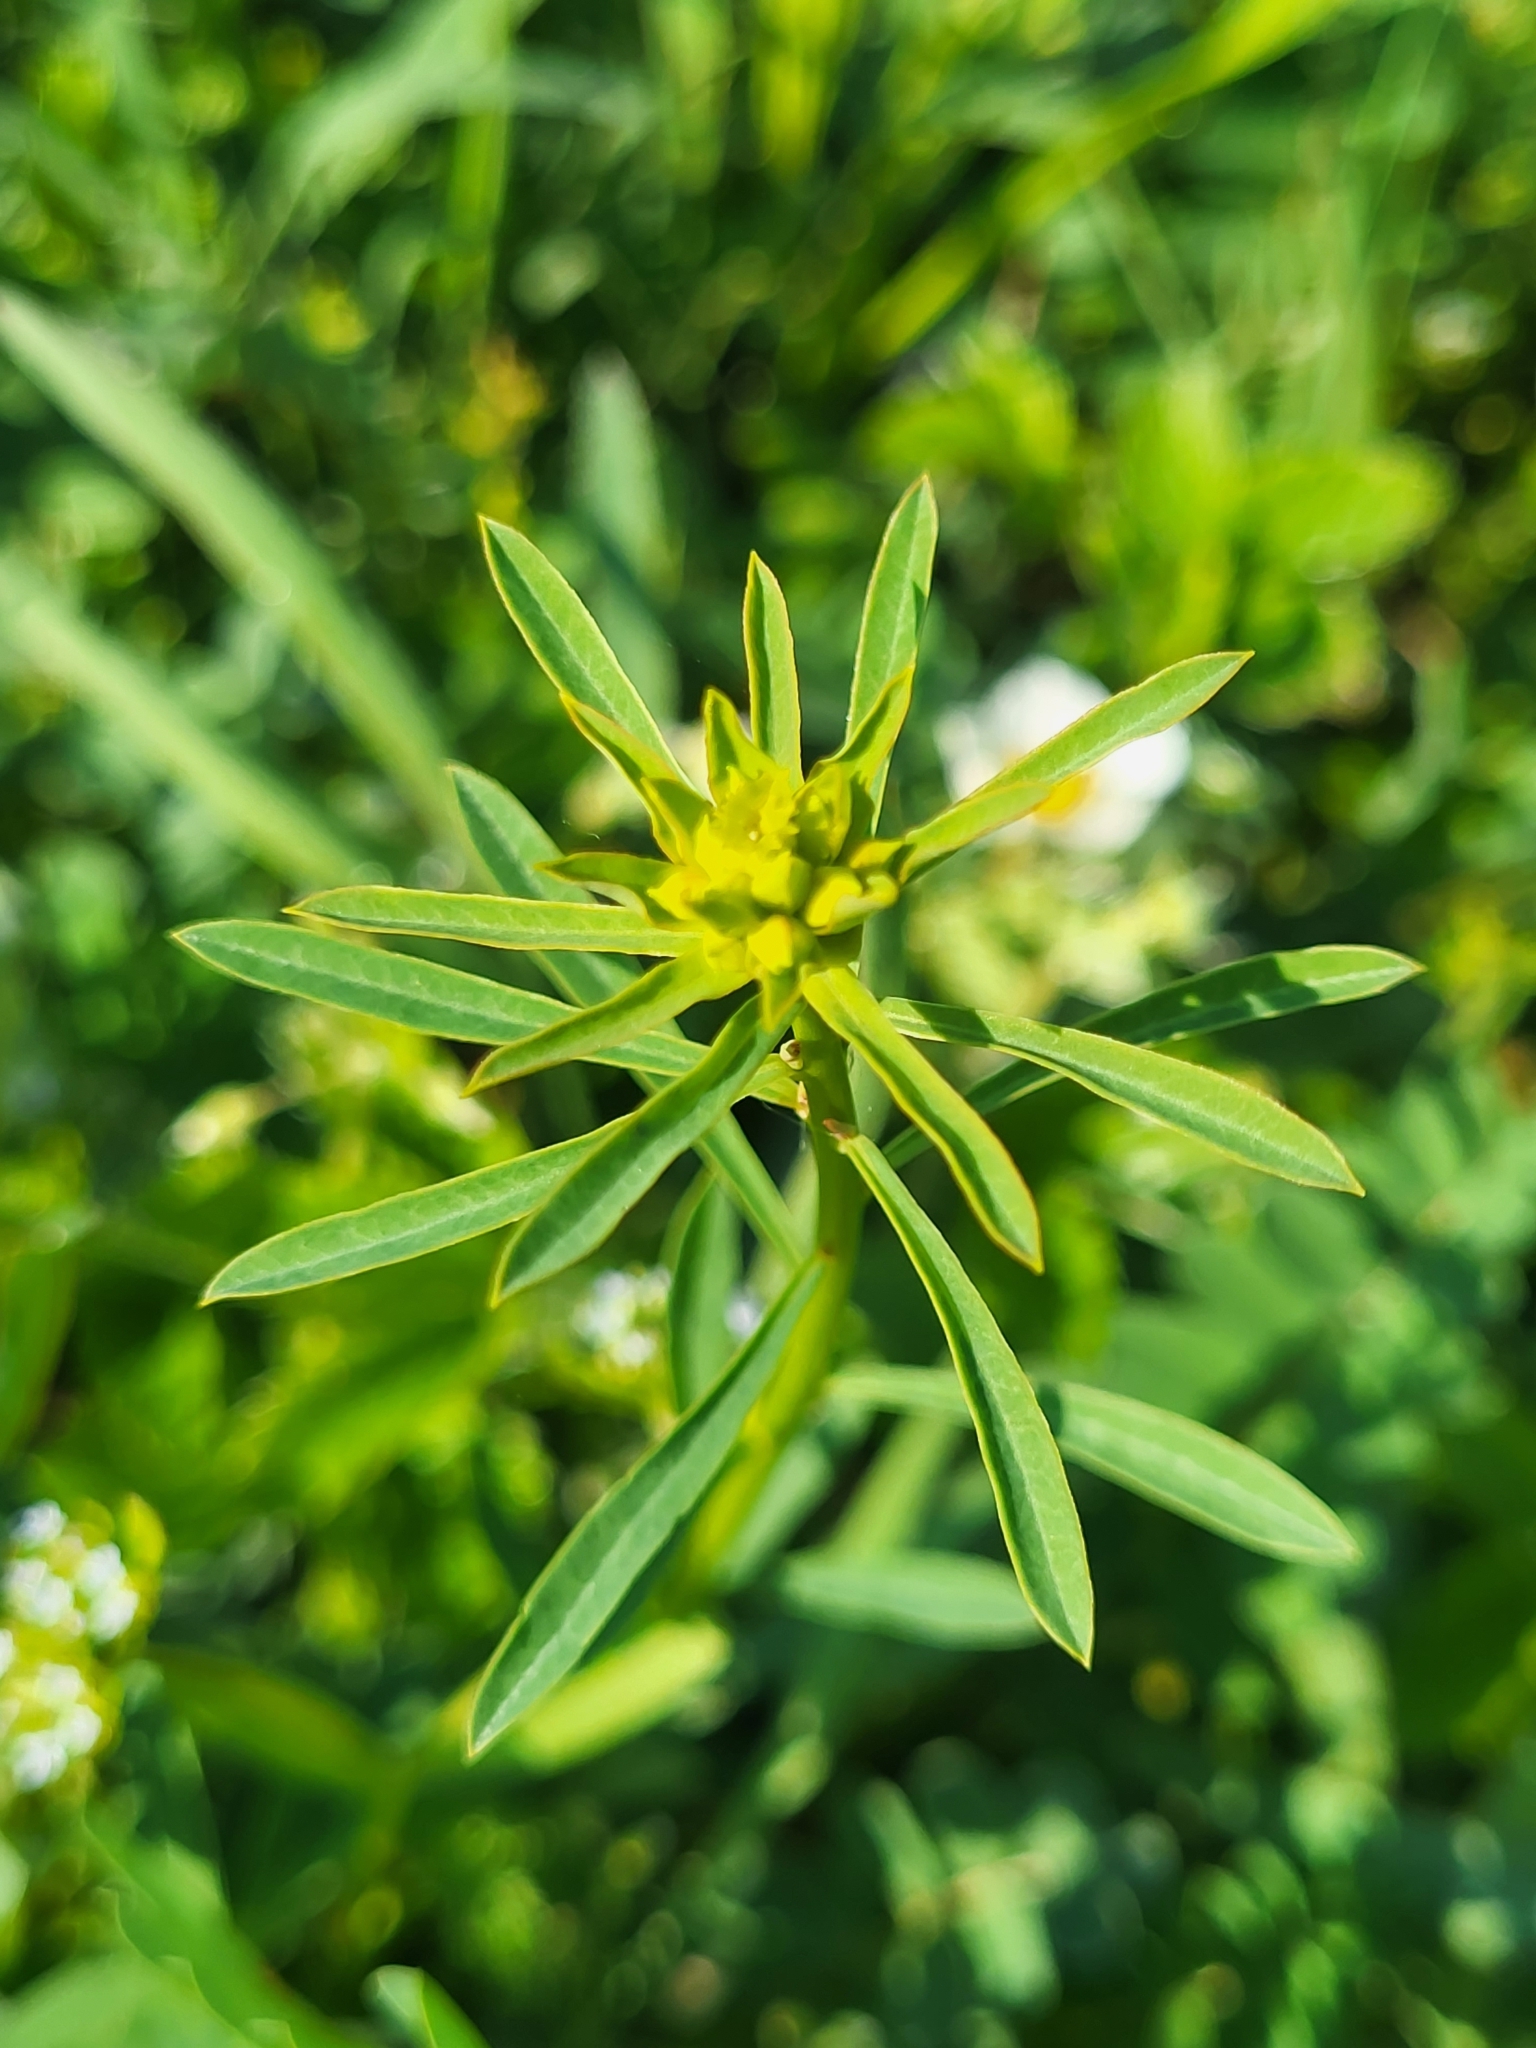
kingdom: Plantae
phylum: Tracheophyta
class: Magnoliopsida
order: Malpighiales
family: Euphorbiaceae
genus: Euphorbia
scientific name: Euphorbia esula
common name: Leafy spurge
